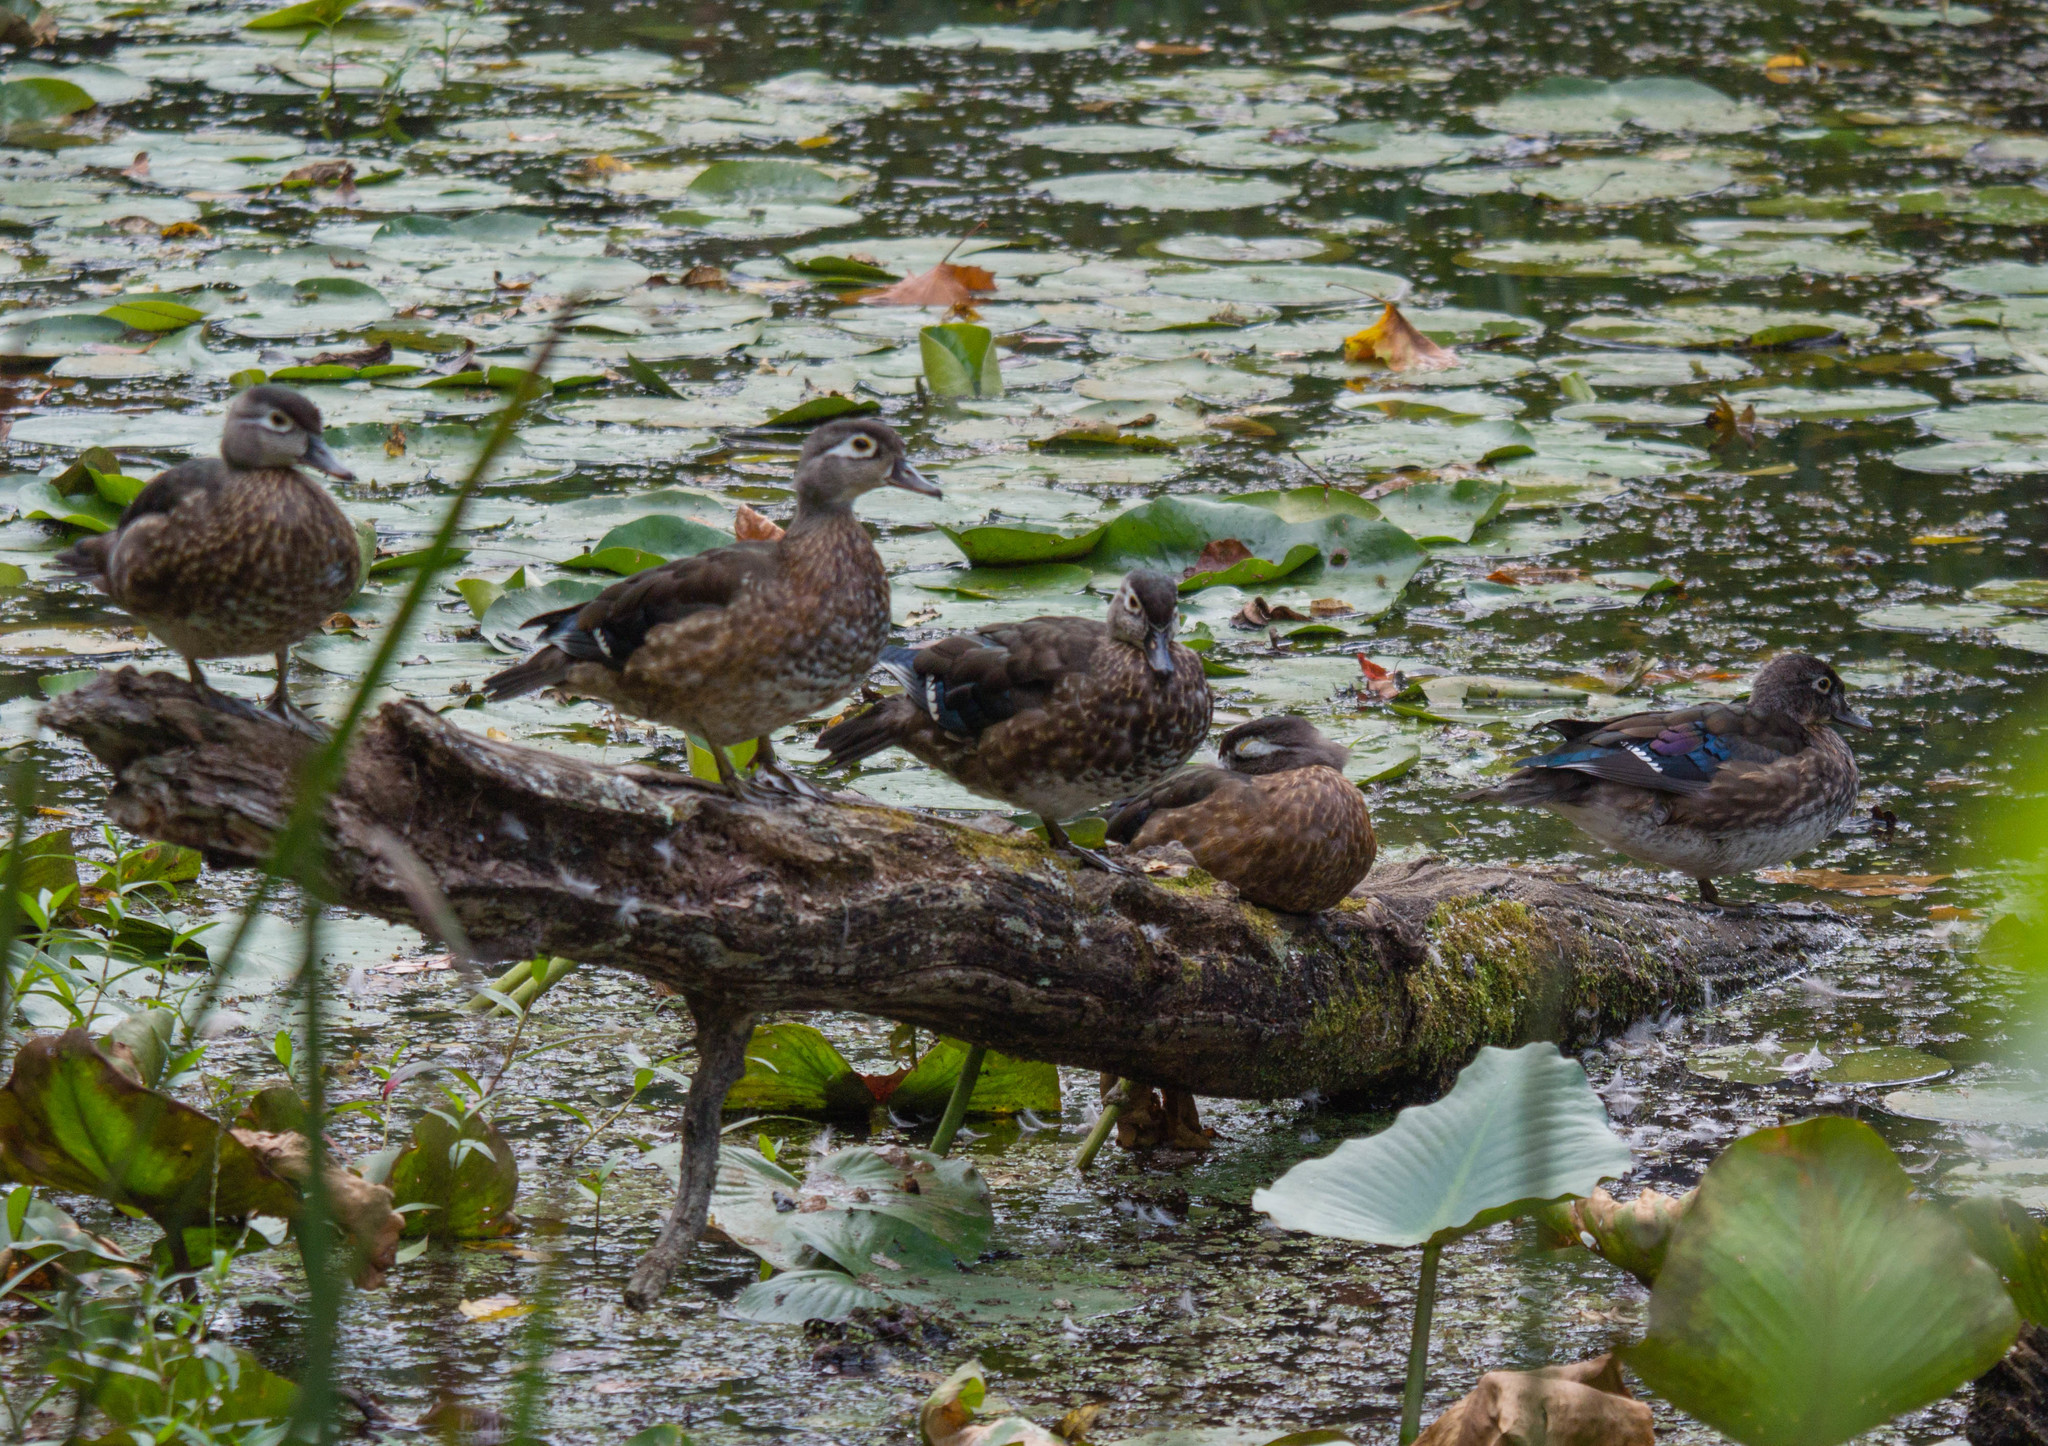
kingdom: Animalia
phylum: Chordata
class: Aves
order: Anseriformes
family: Anatidae
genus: Aix
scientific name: Aix sponsa
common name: Wood duck
